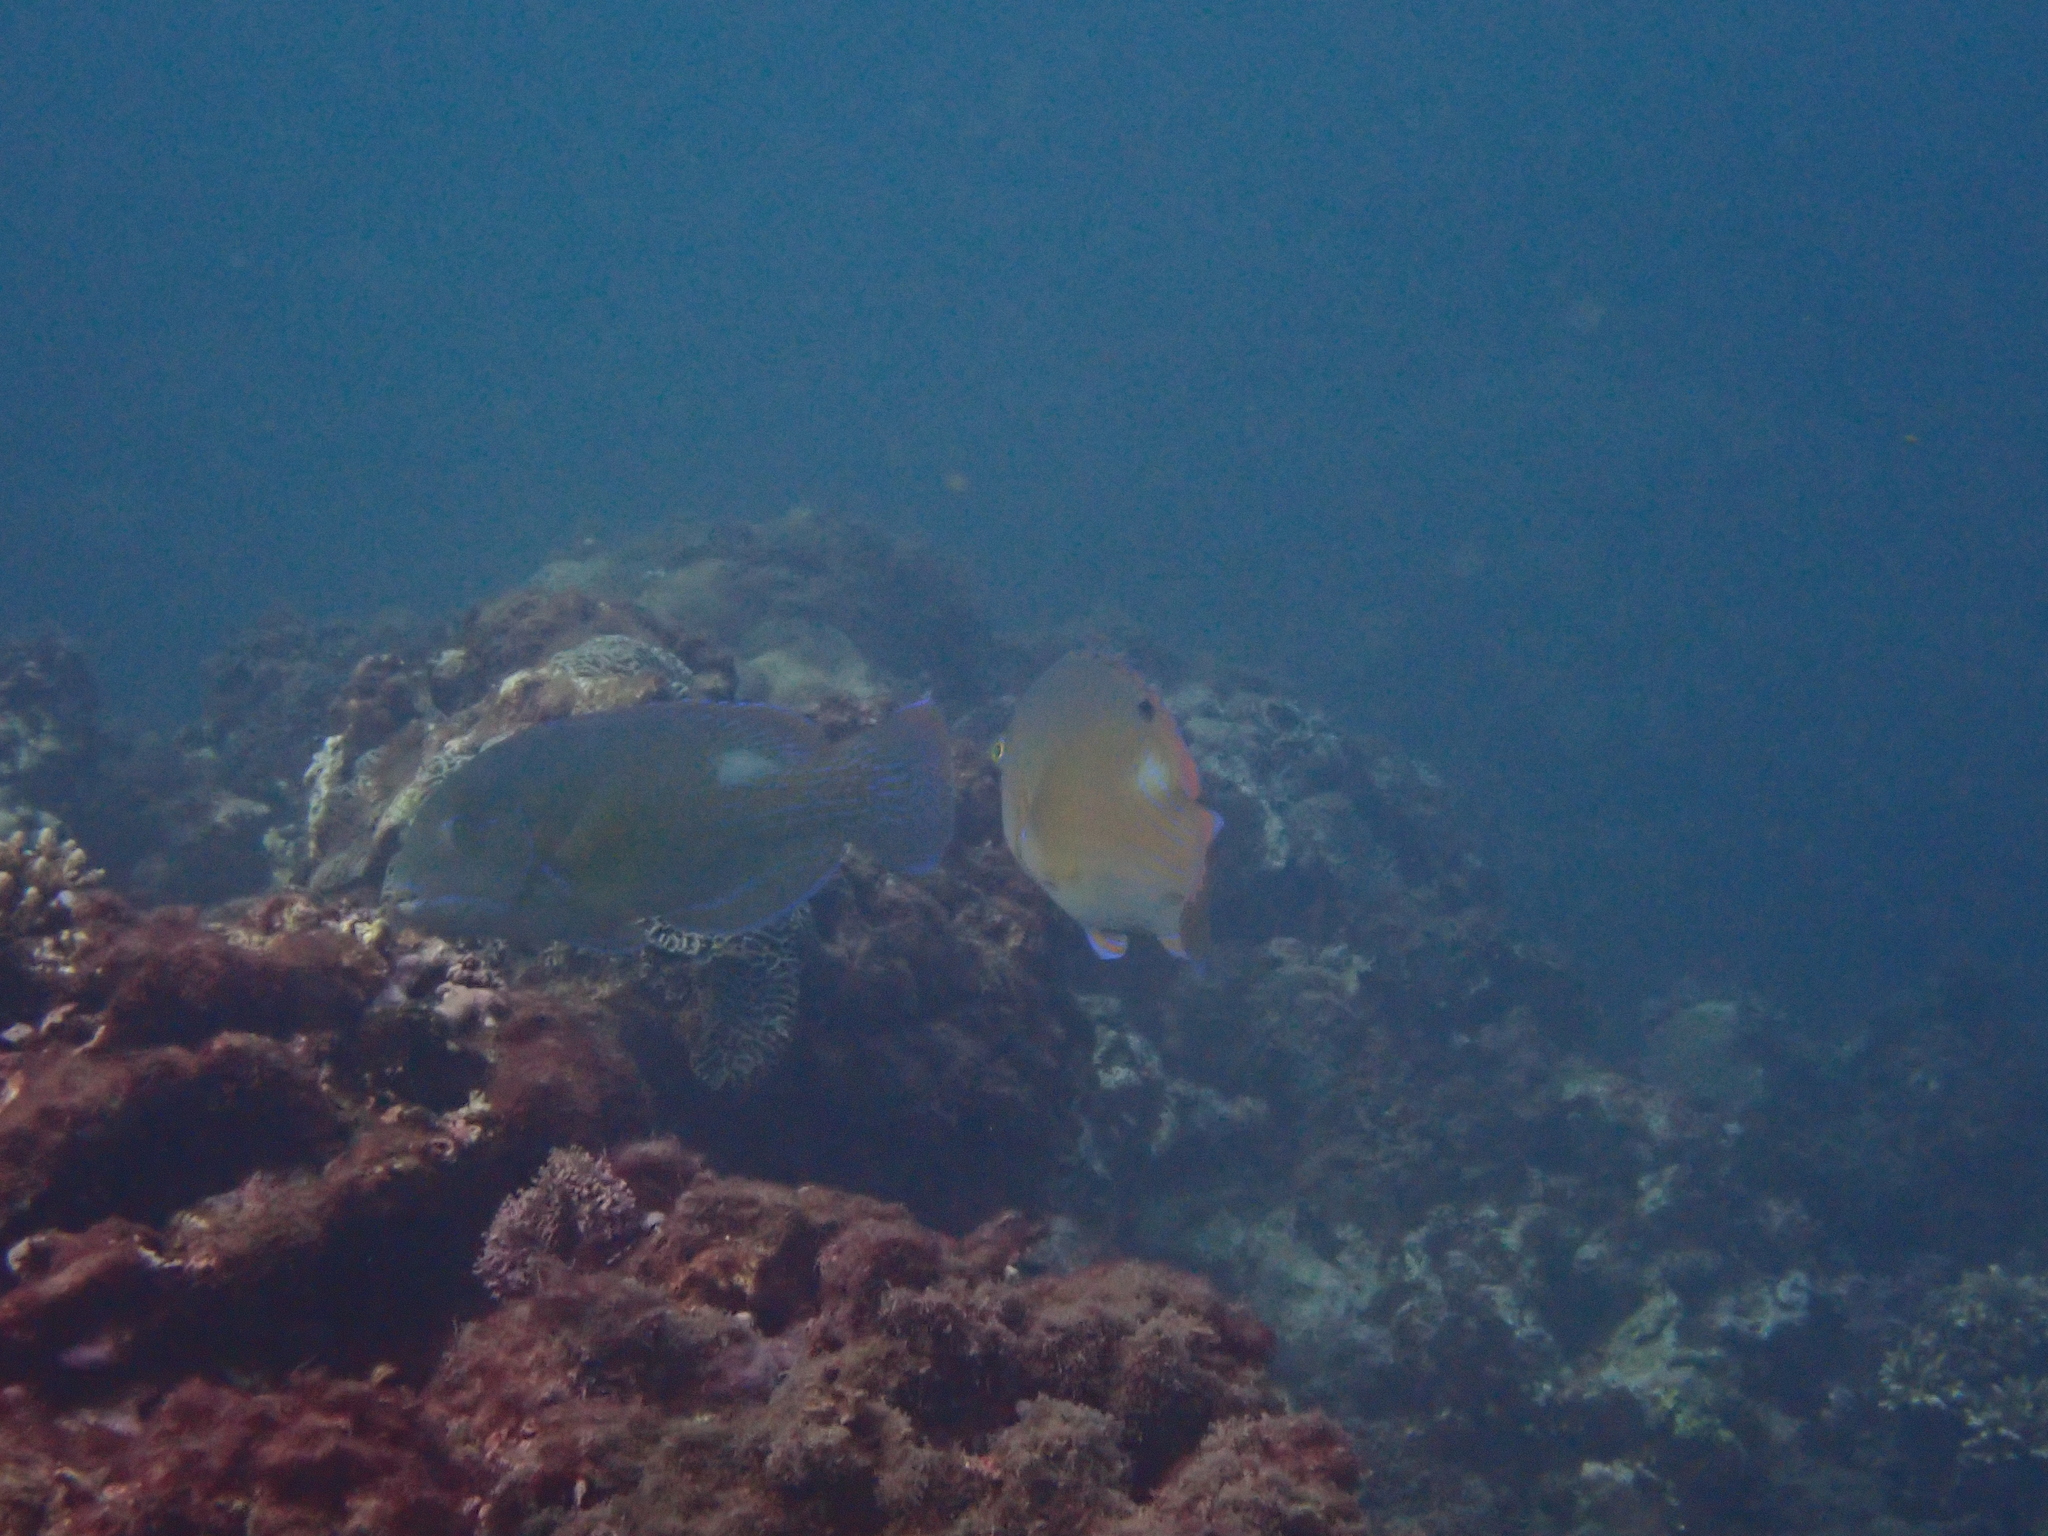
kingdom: Animalia
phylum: Chordata
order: Perciformes
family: Labridae
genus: Choerodon
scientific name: Choerodon schoenleinii
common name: Blackspot tuskfish
